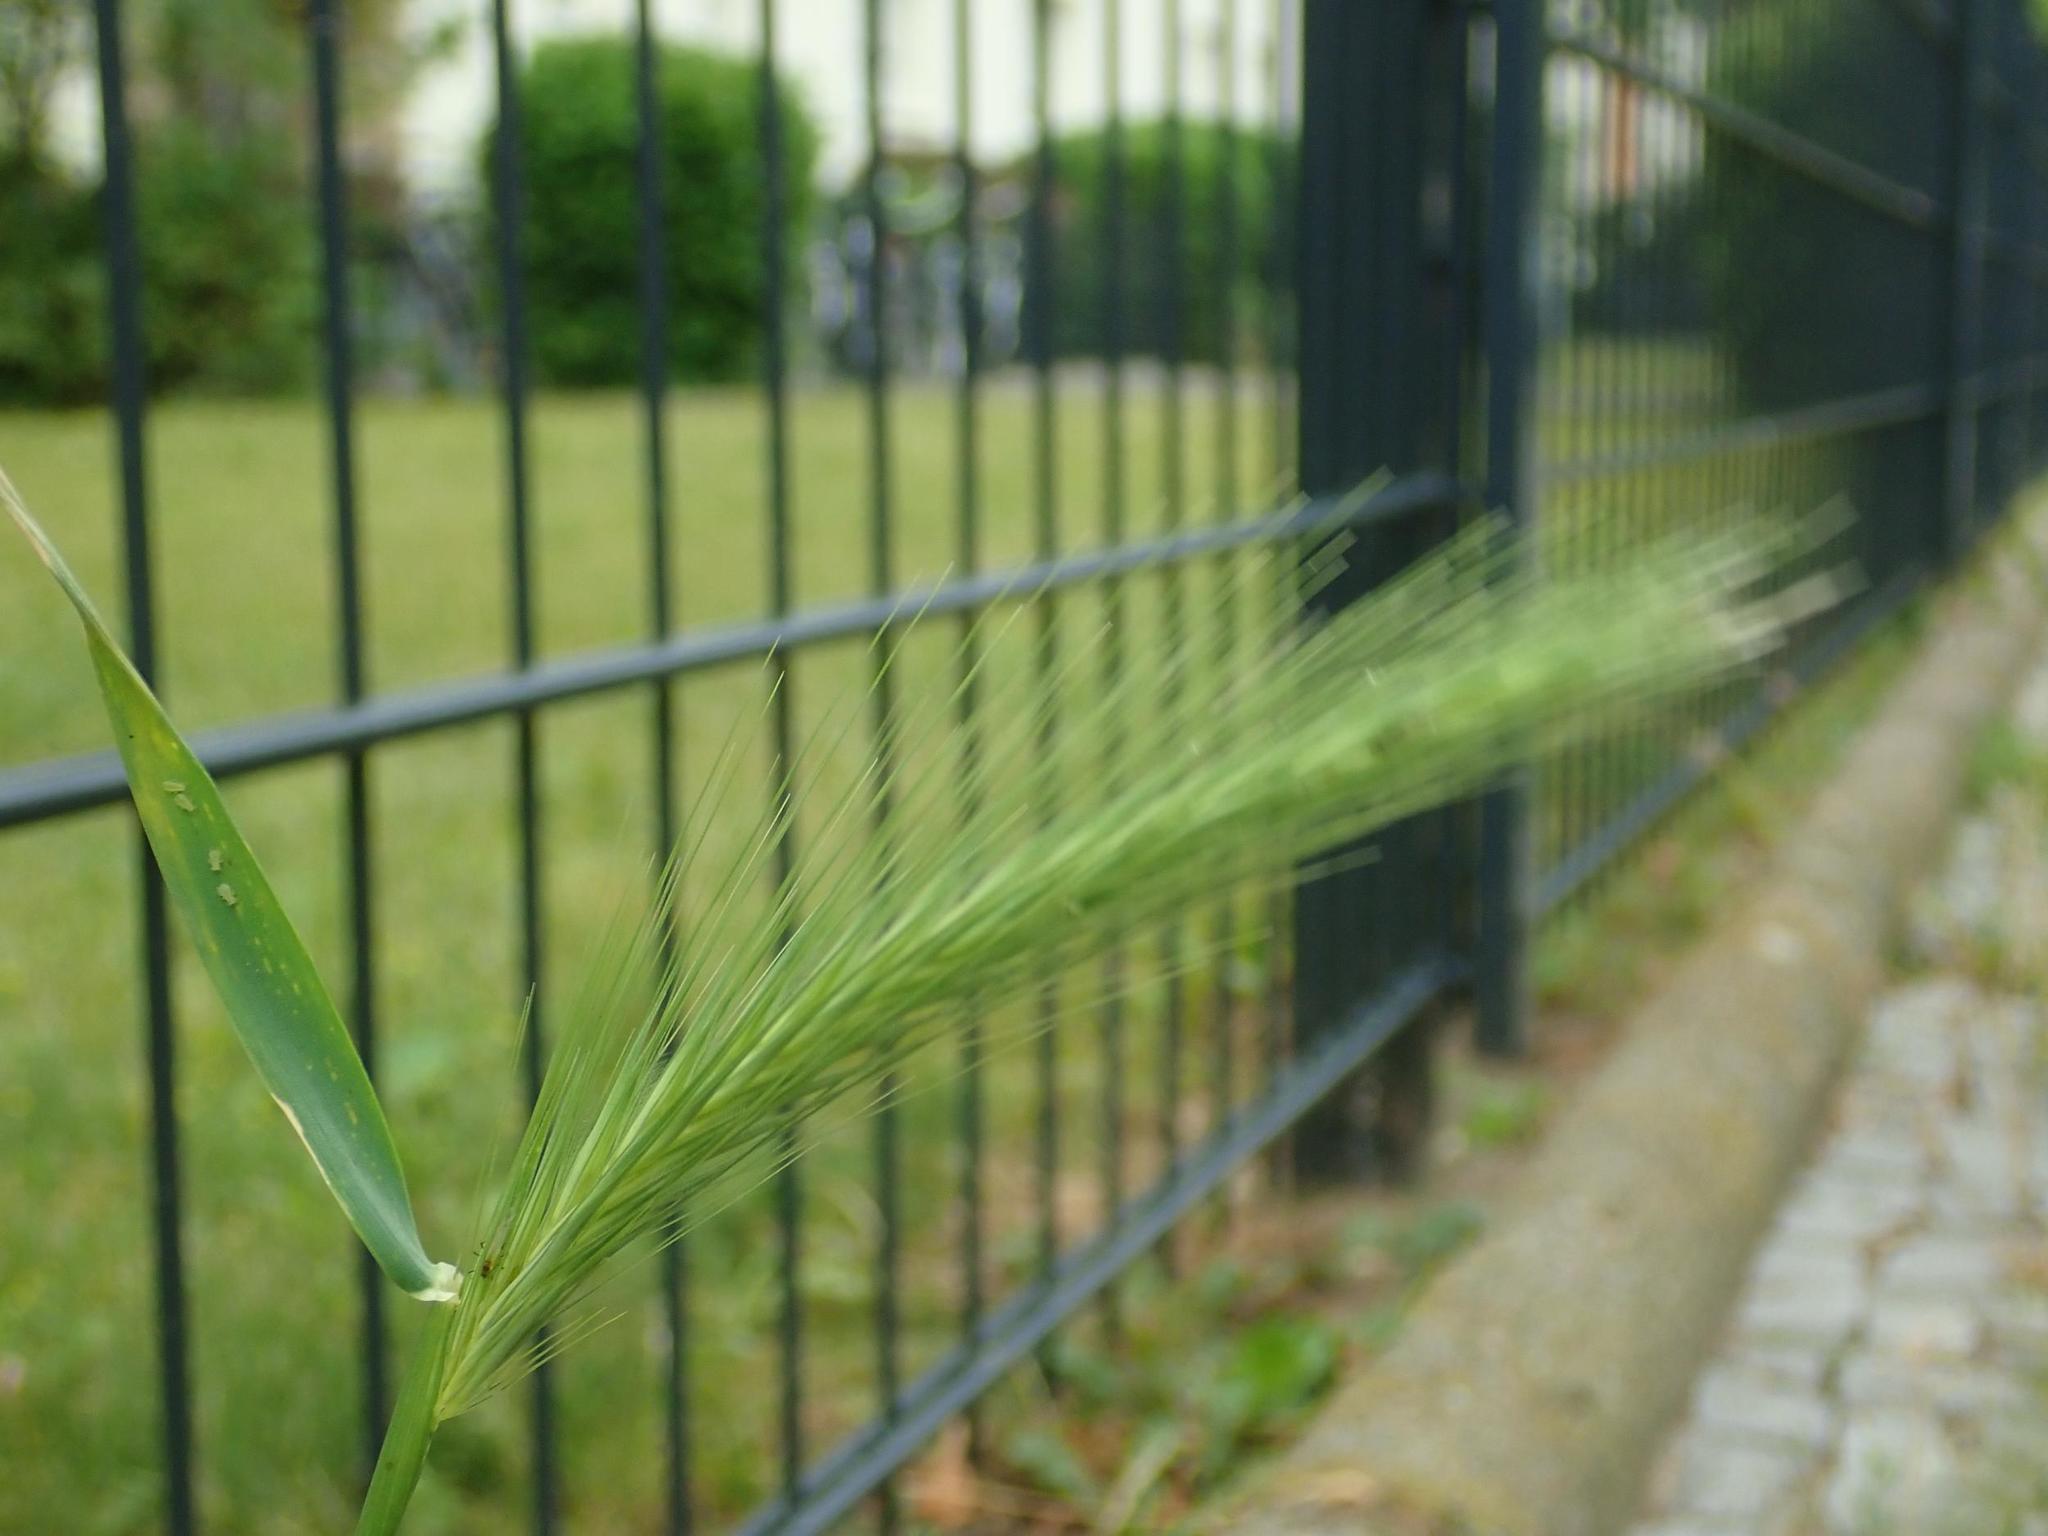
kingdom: Plantae
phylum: Tracheophyta
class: Liliopsida
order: Poales
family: Poaceae
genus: Hordeum
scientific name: Hordeum murinum
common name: Wall barley
